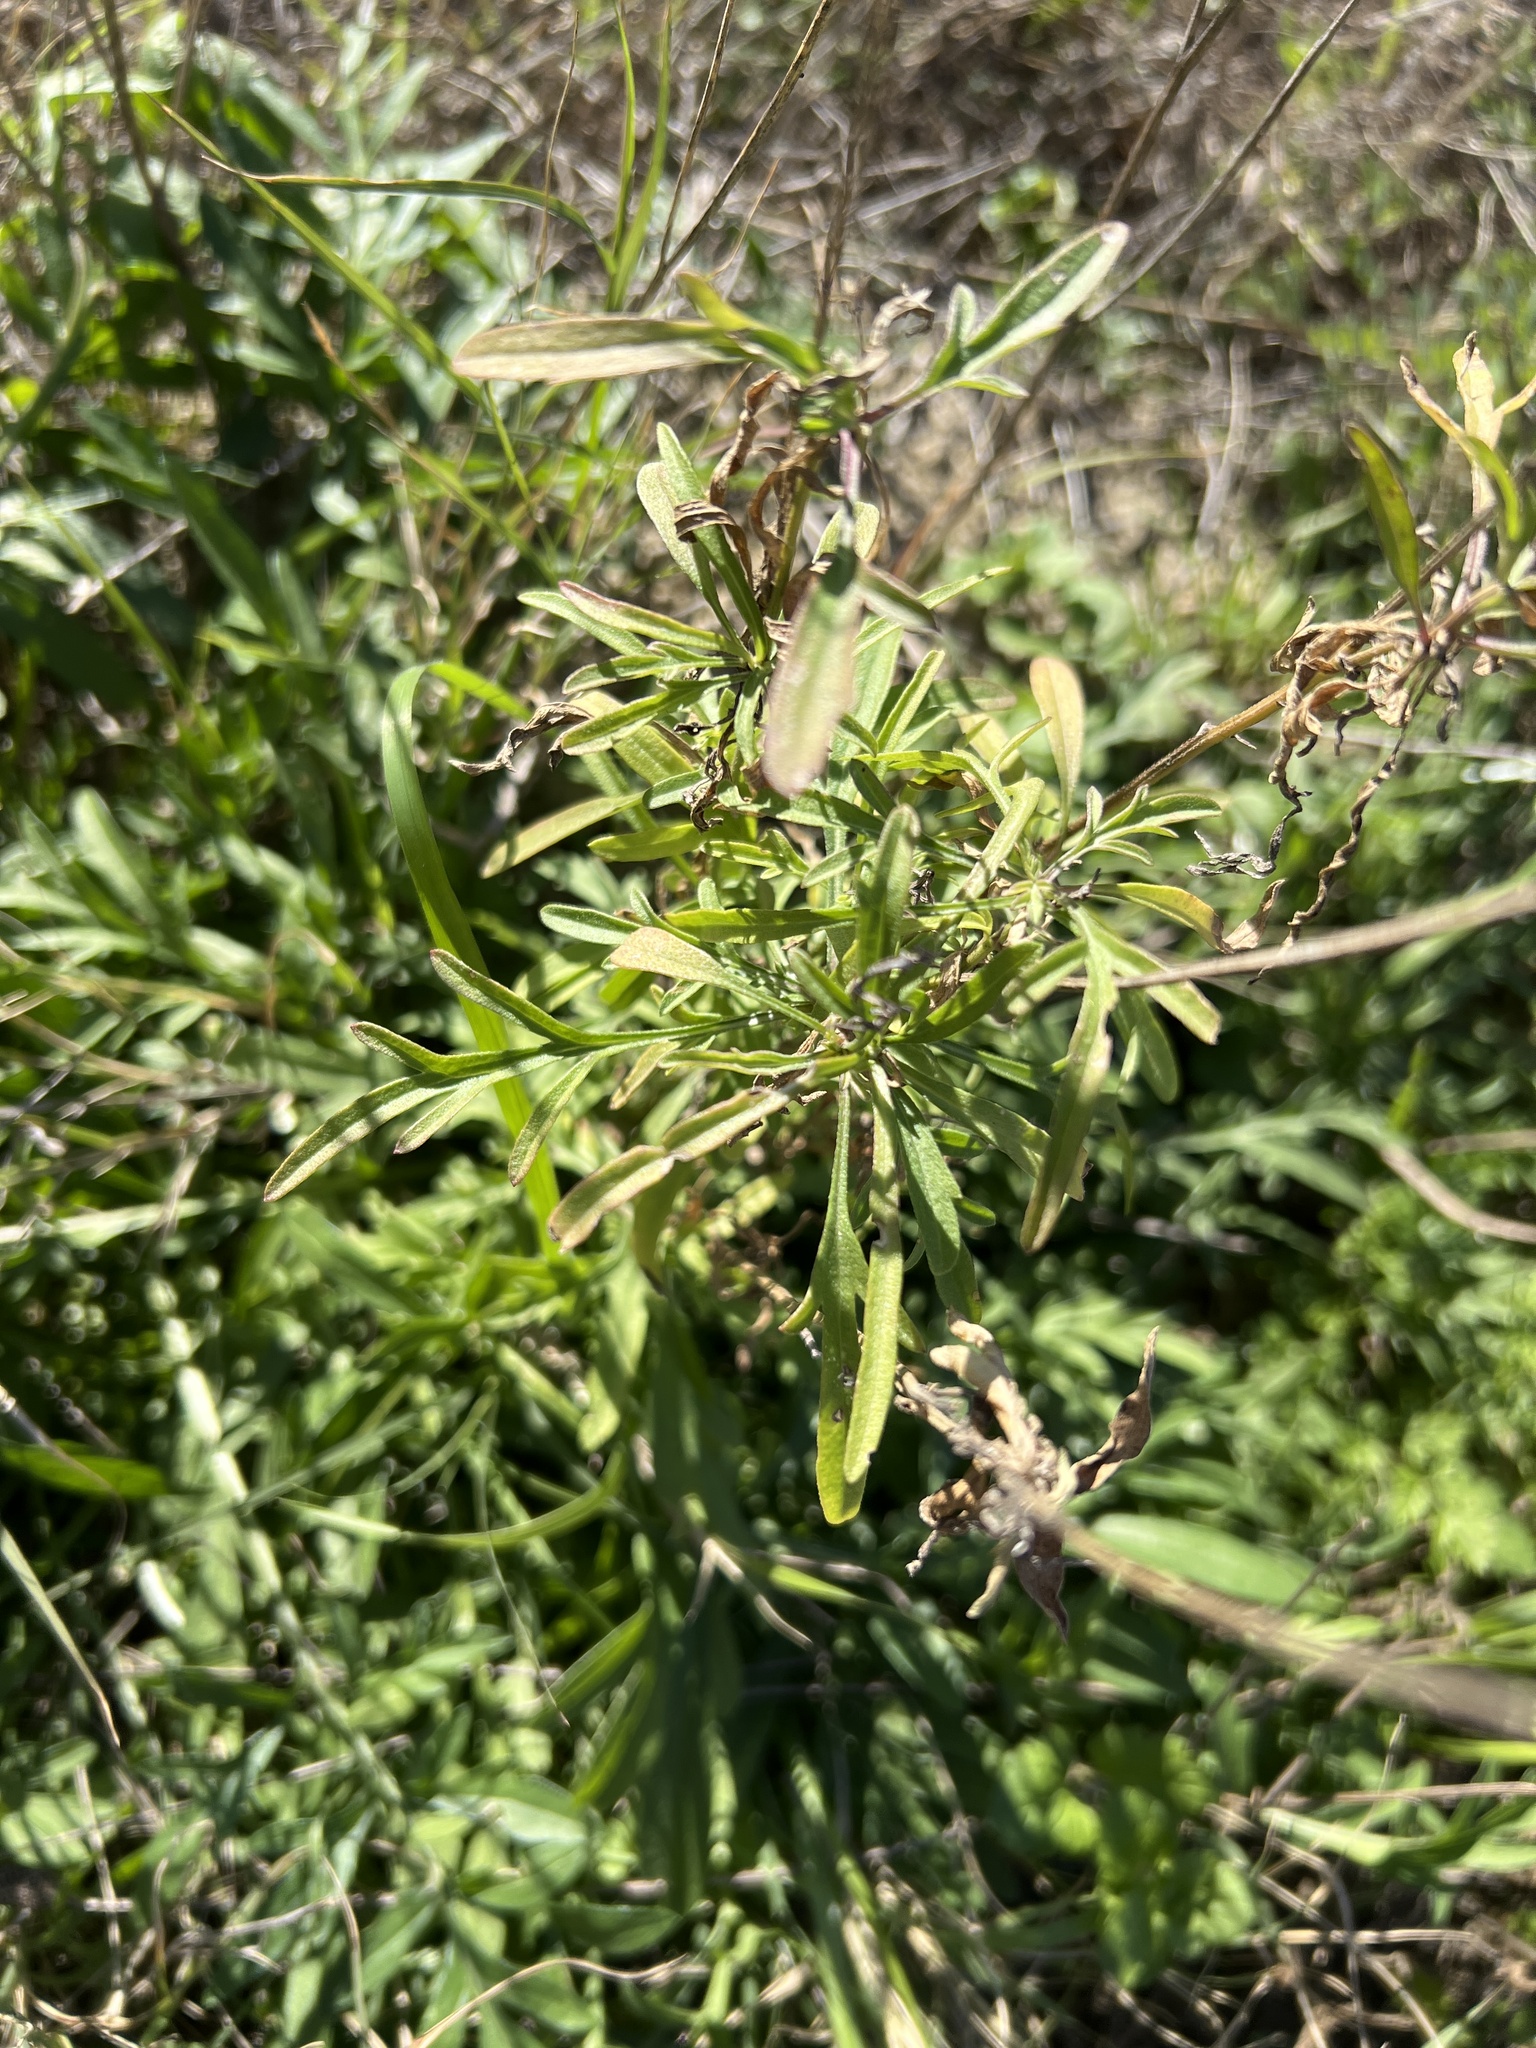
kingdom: Plantae
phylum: Tracheophyta
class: Magnoliopsida
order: Asterales
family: Asteraceae
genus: Ratibida
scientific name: Ratibida columnifera
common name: Prairie coneflower
